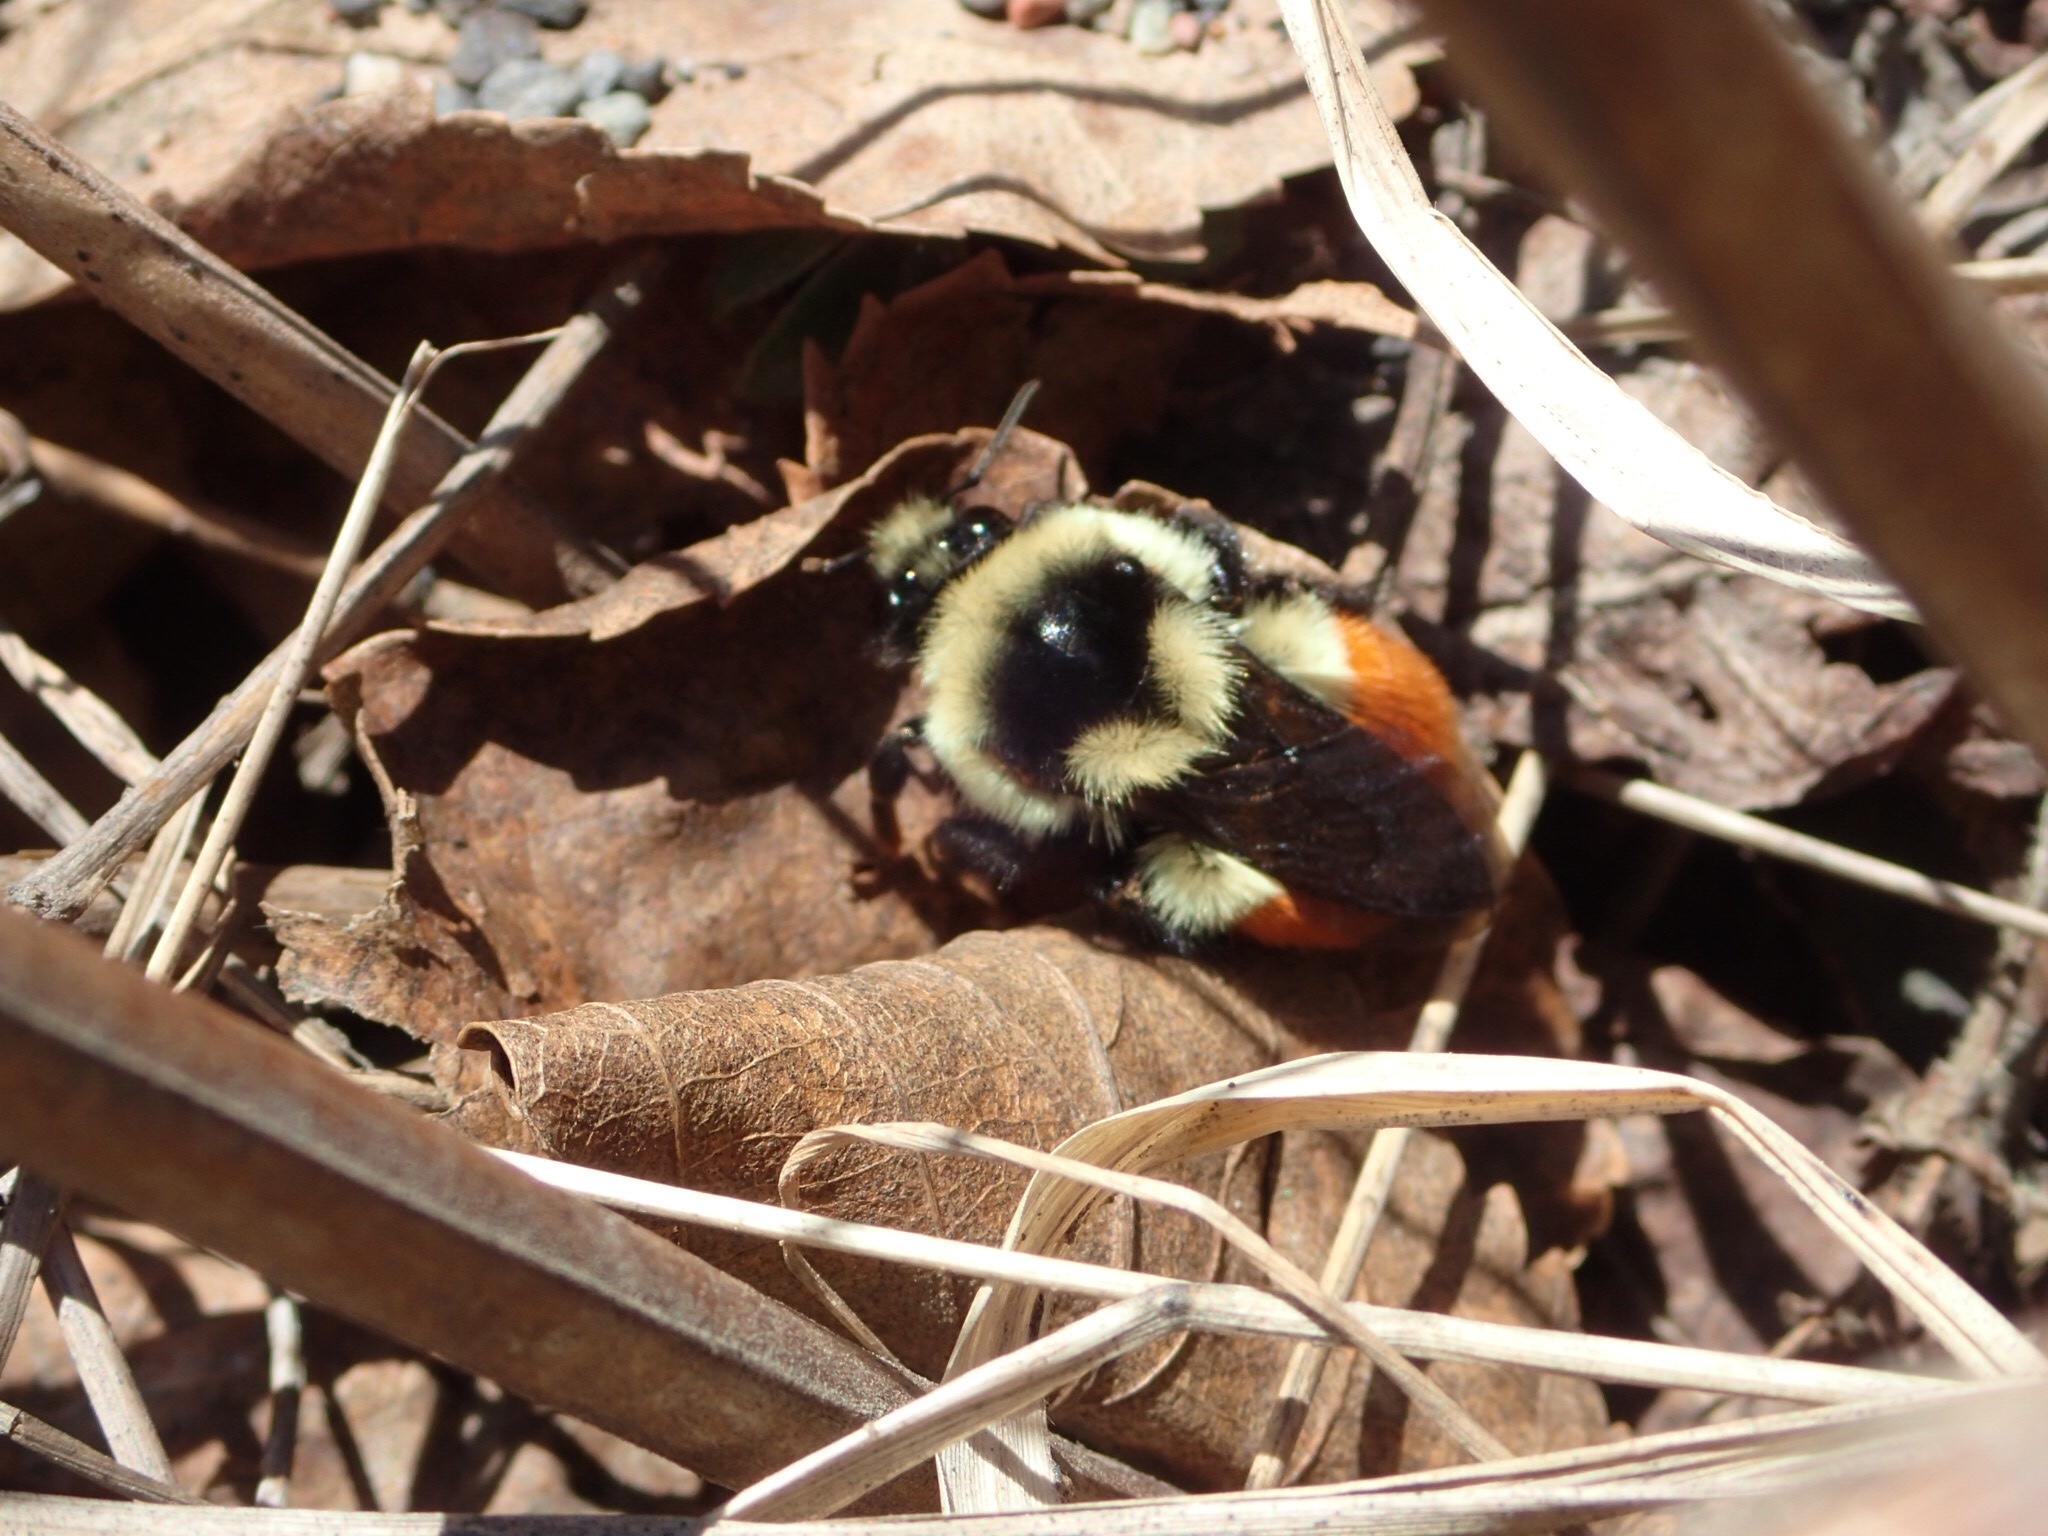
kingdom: Animalia
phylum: Arthropoda
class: Insecta
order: Hymenoptera
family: Apidae
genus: Bombus
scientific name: Bombus ternarius
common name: Tri-colored bumble bee
